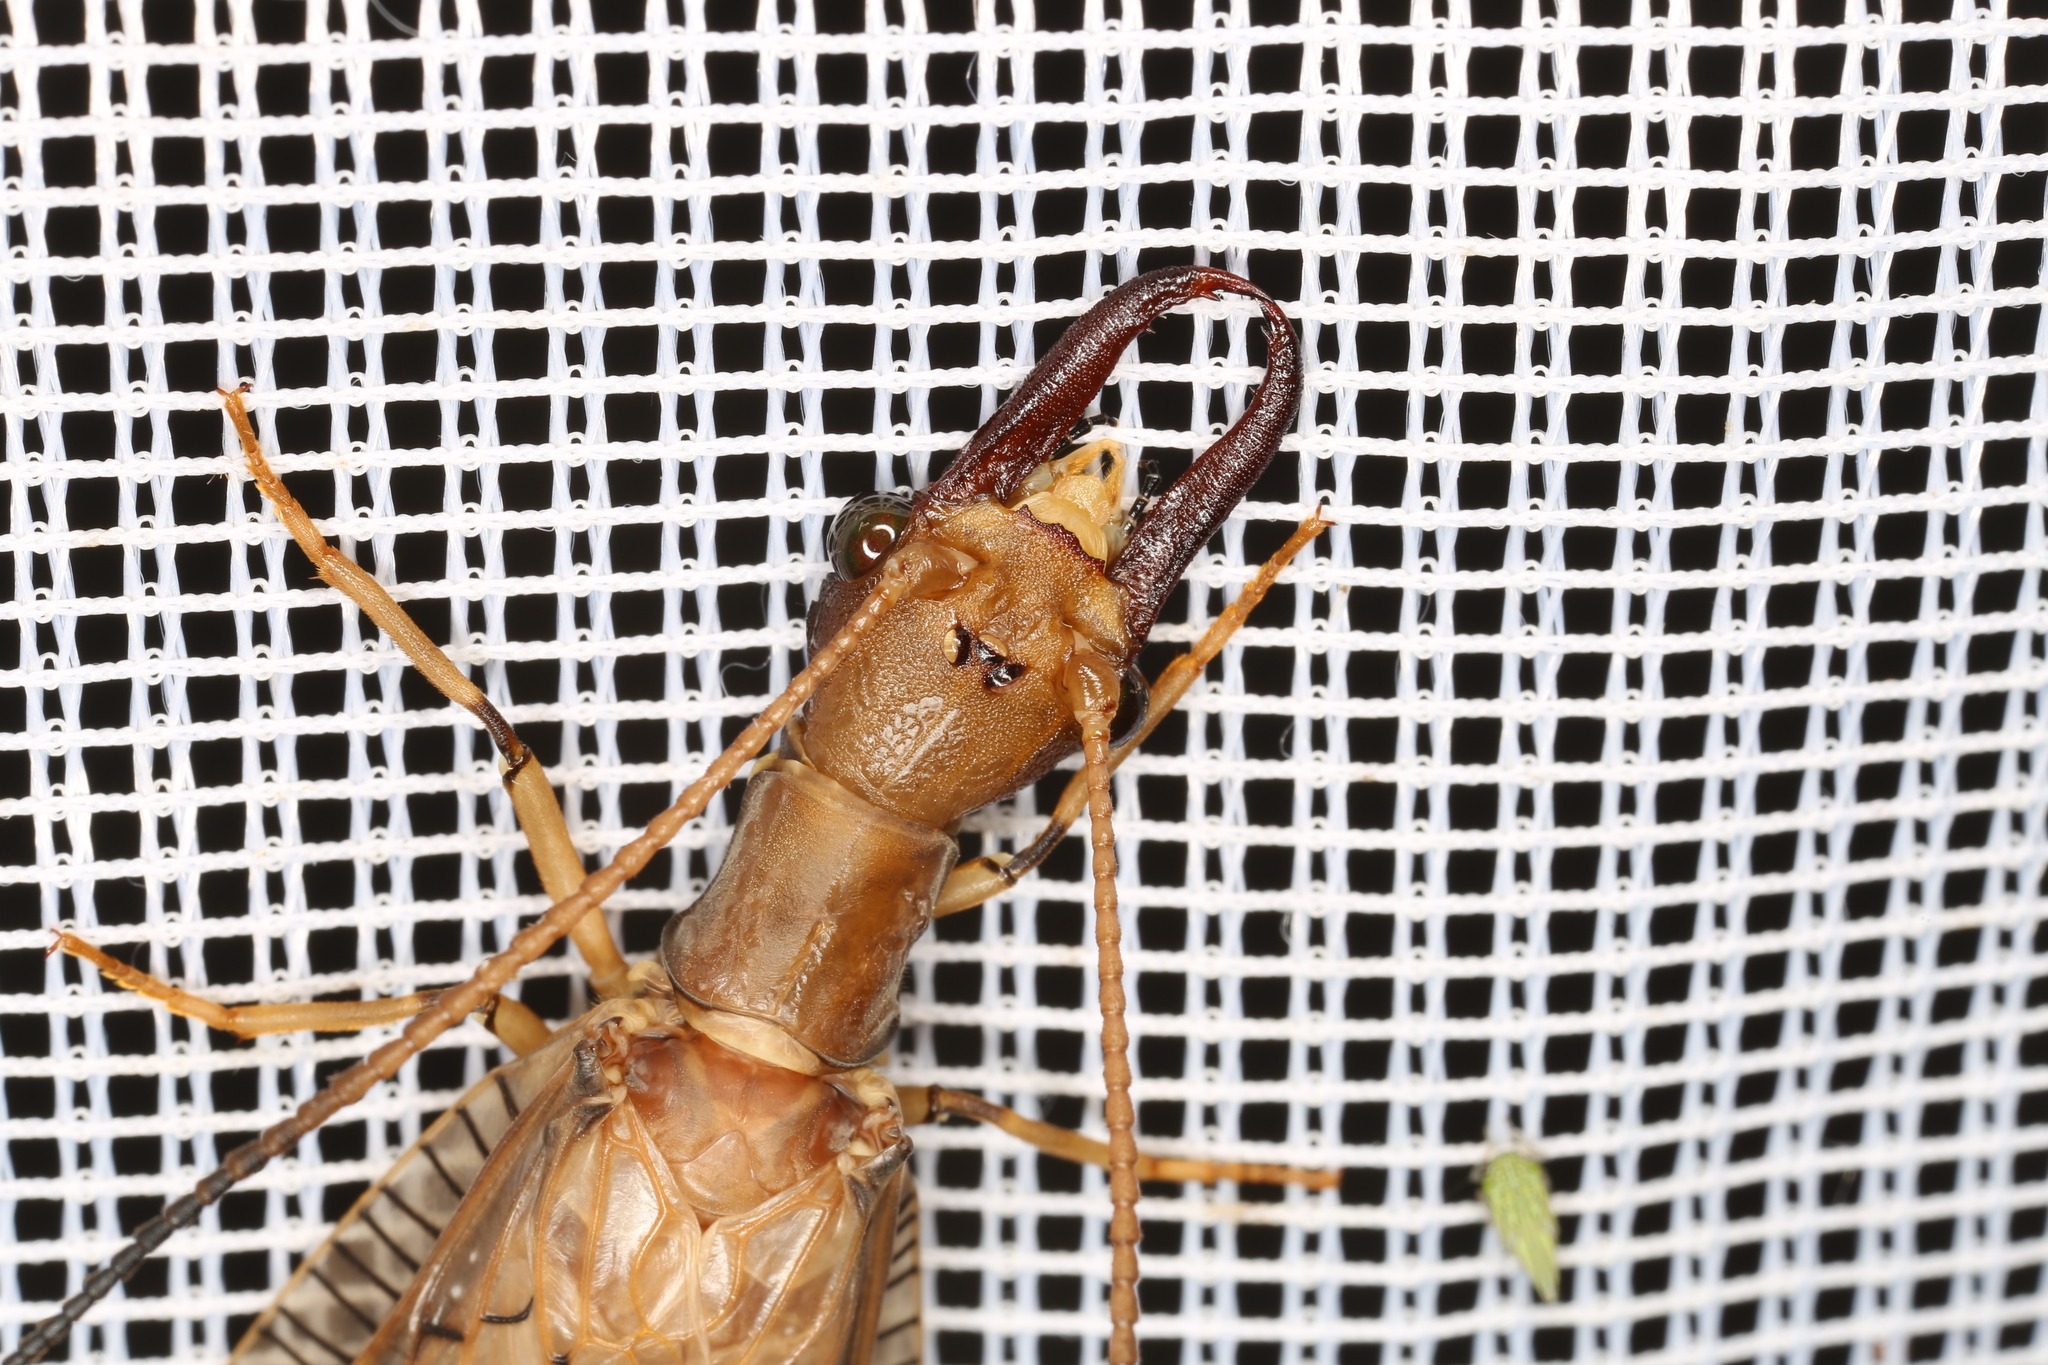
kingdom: Animalia
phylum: Arthropoda
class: Insecta
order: Megaloptera
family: Corydalidae
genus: Corydalus
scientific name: Corydalus flavicornis
